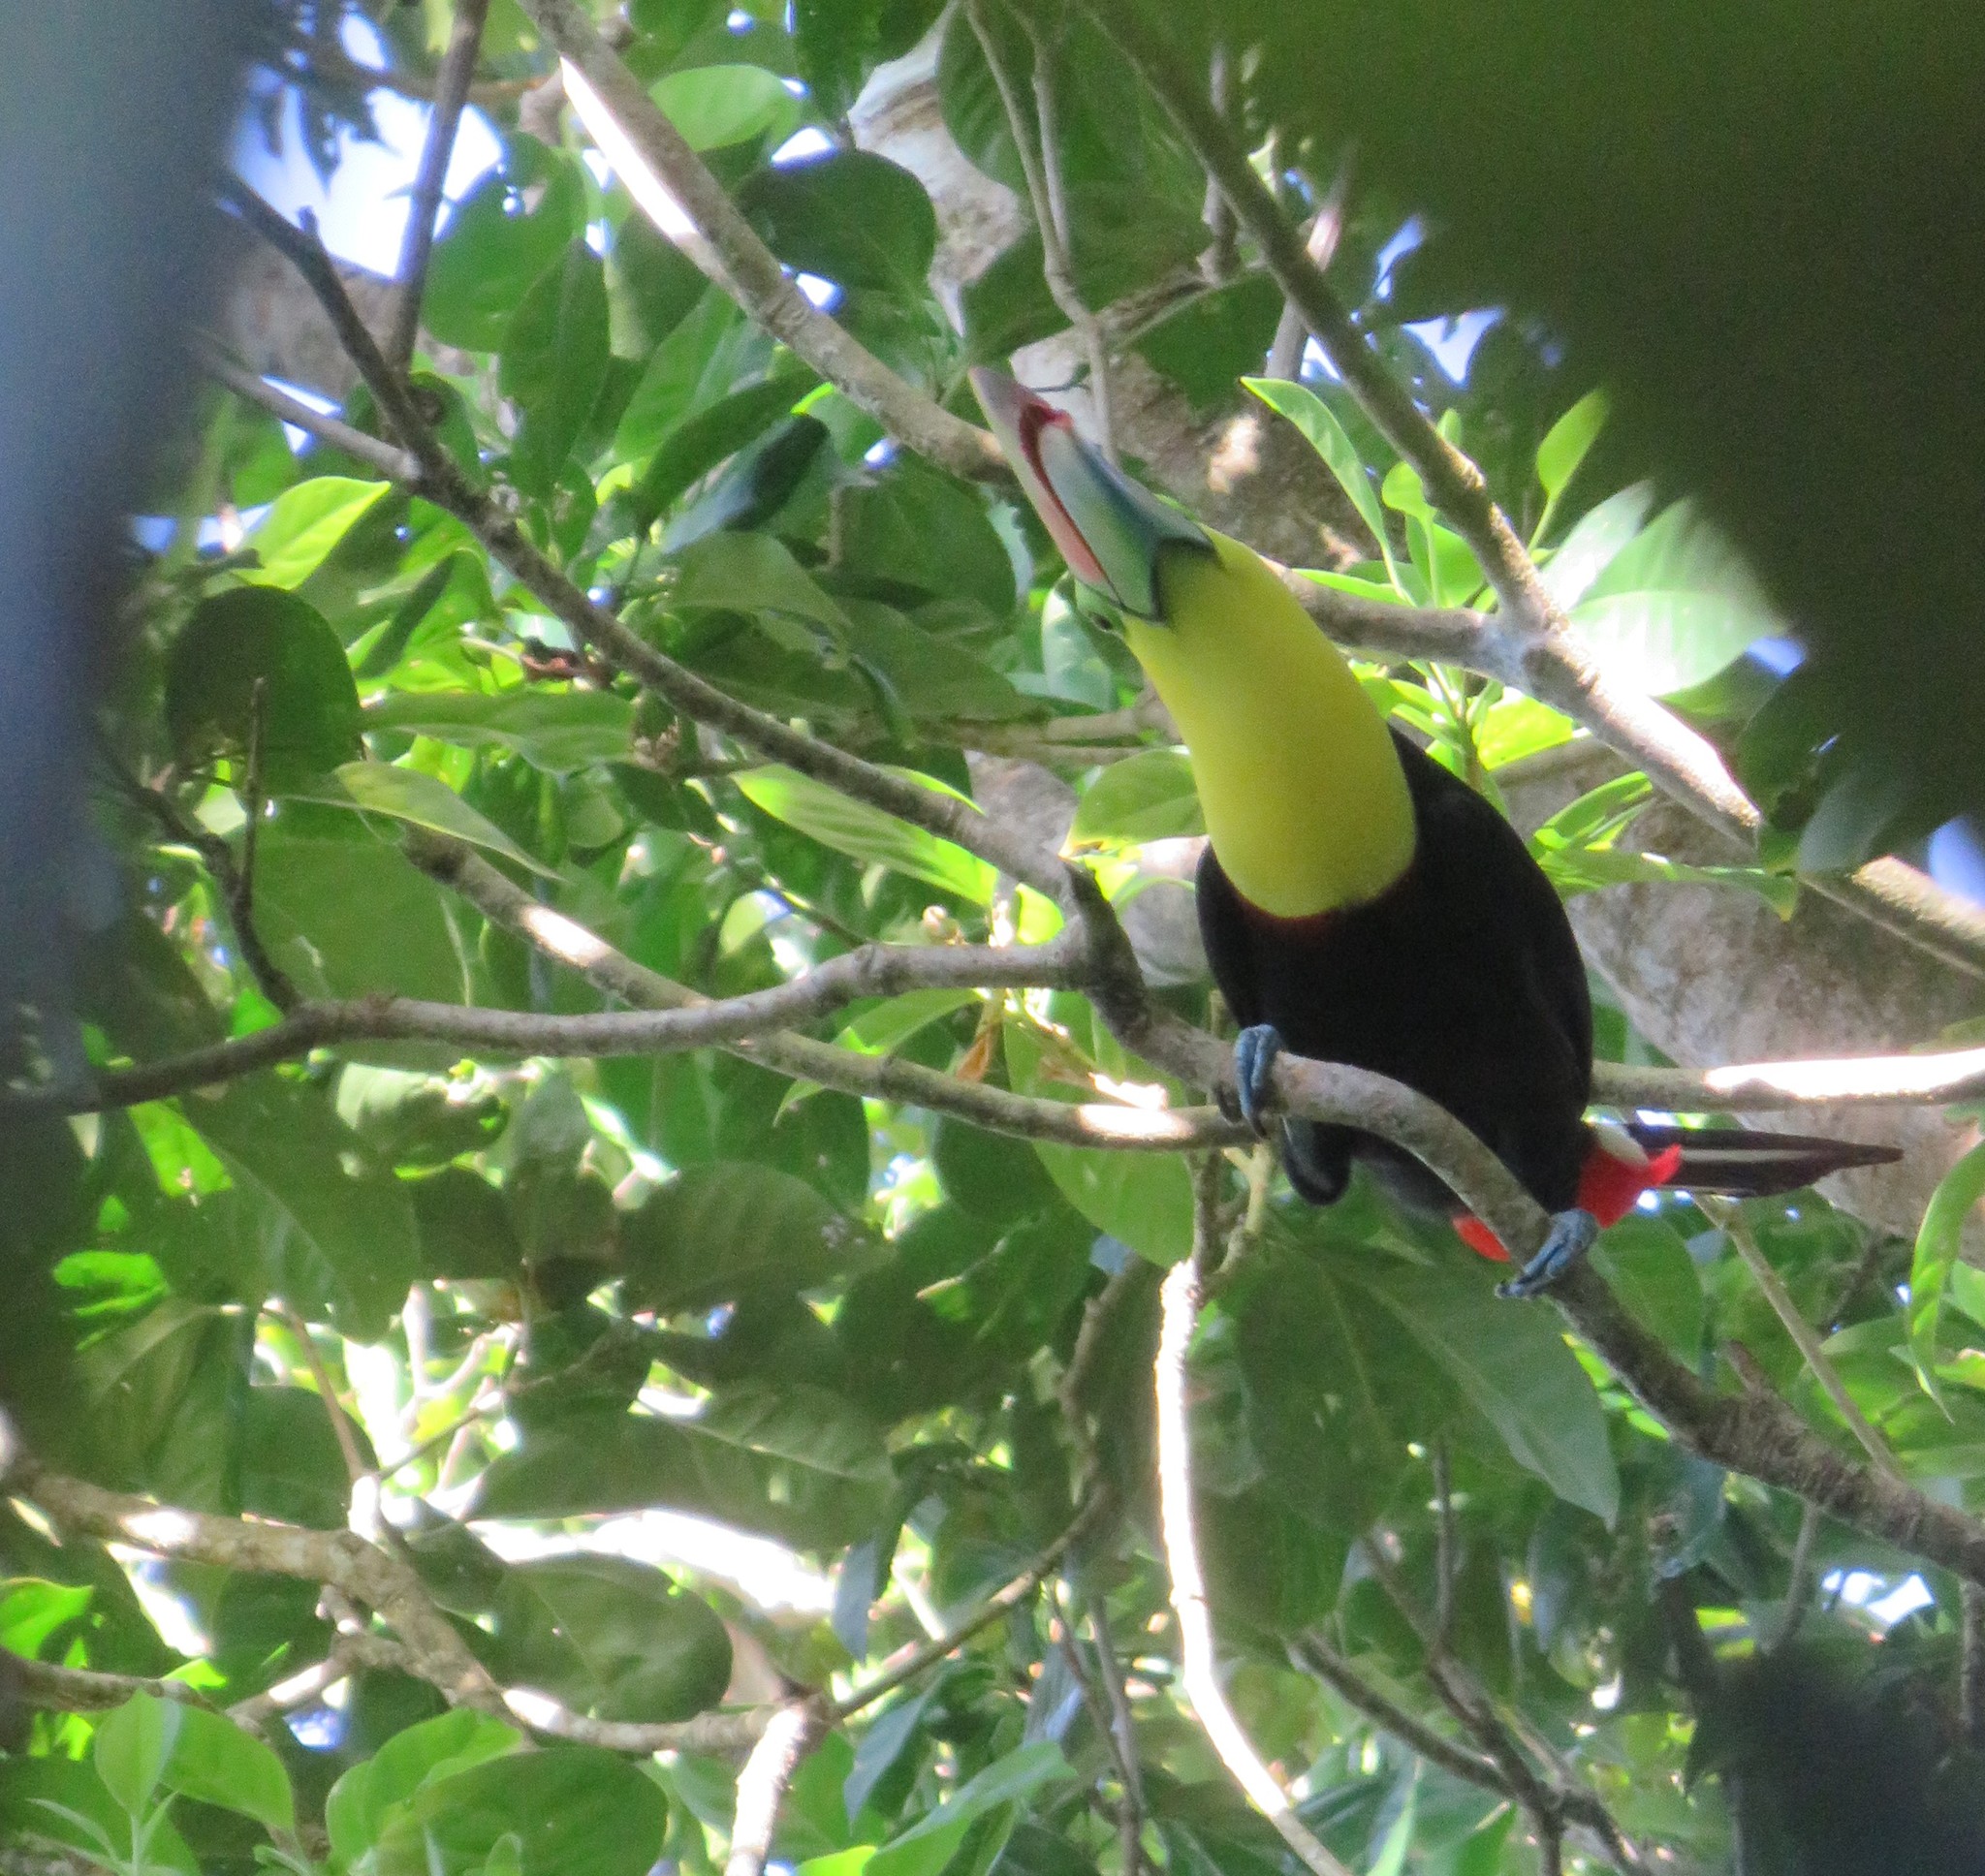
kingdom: Animalia
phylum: Chordata
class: Aves
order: Piciformes
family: Ramphastidae
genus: Ramphastos
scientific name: Ramphastos sulfuratus
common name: Keel-billed toucan
